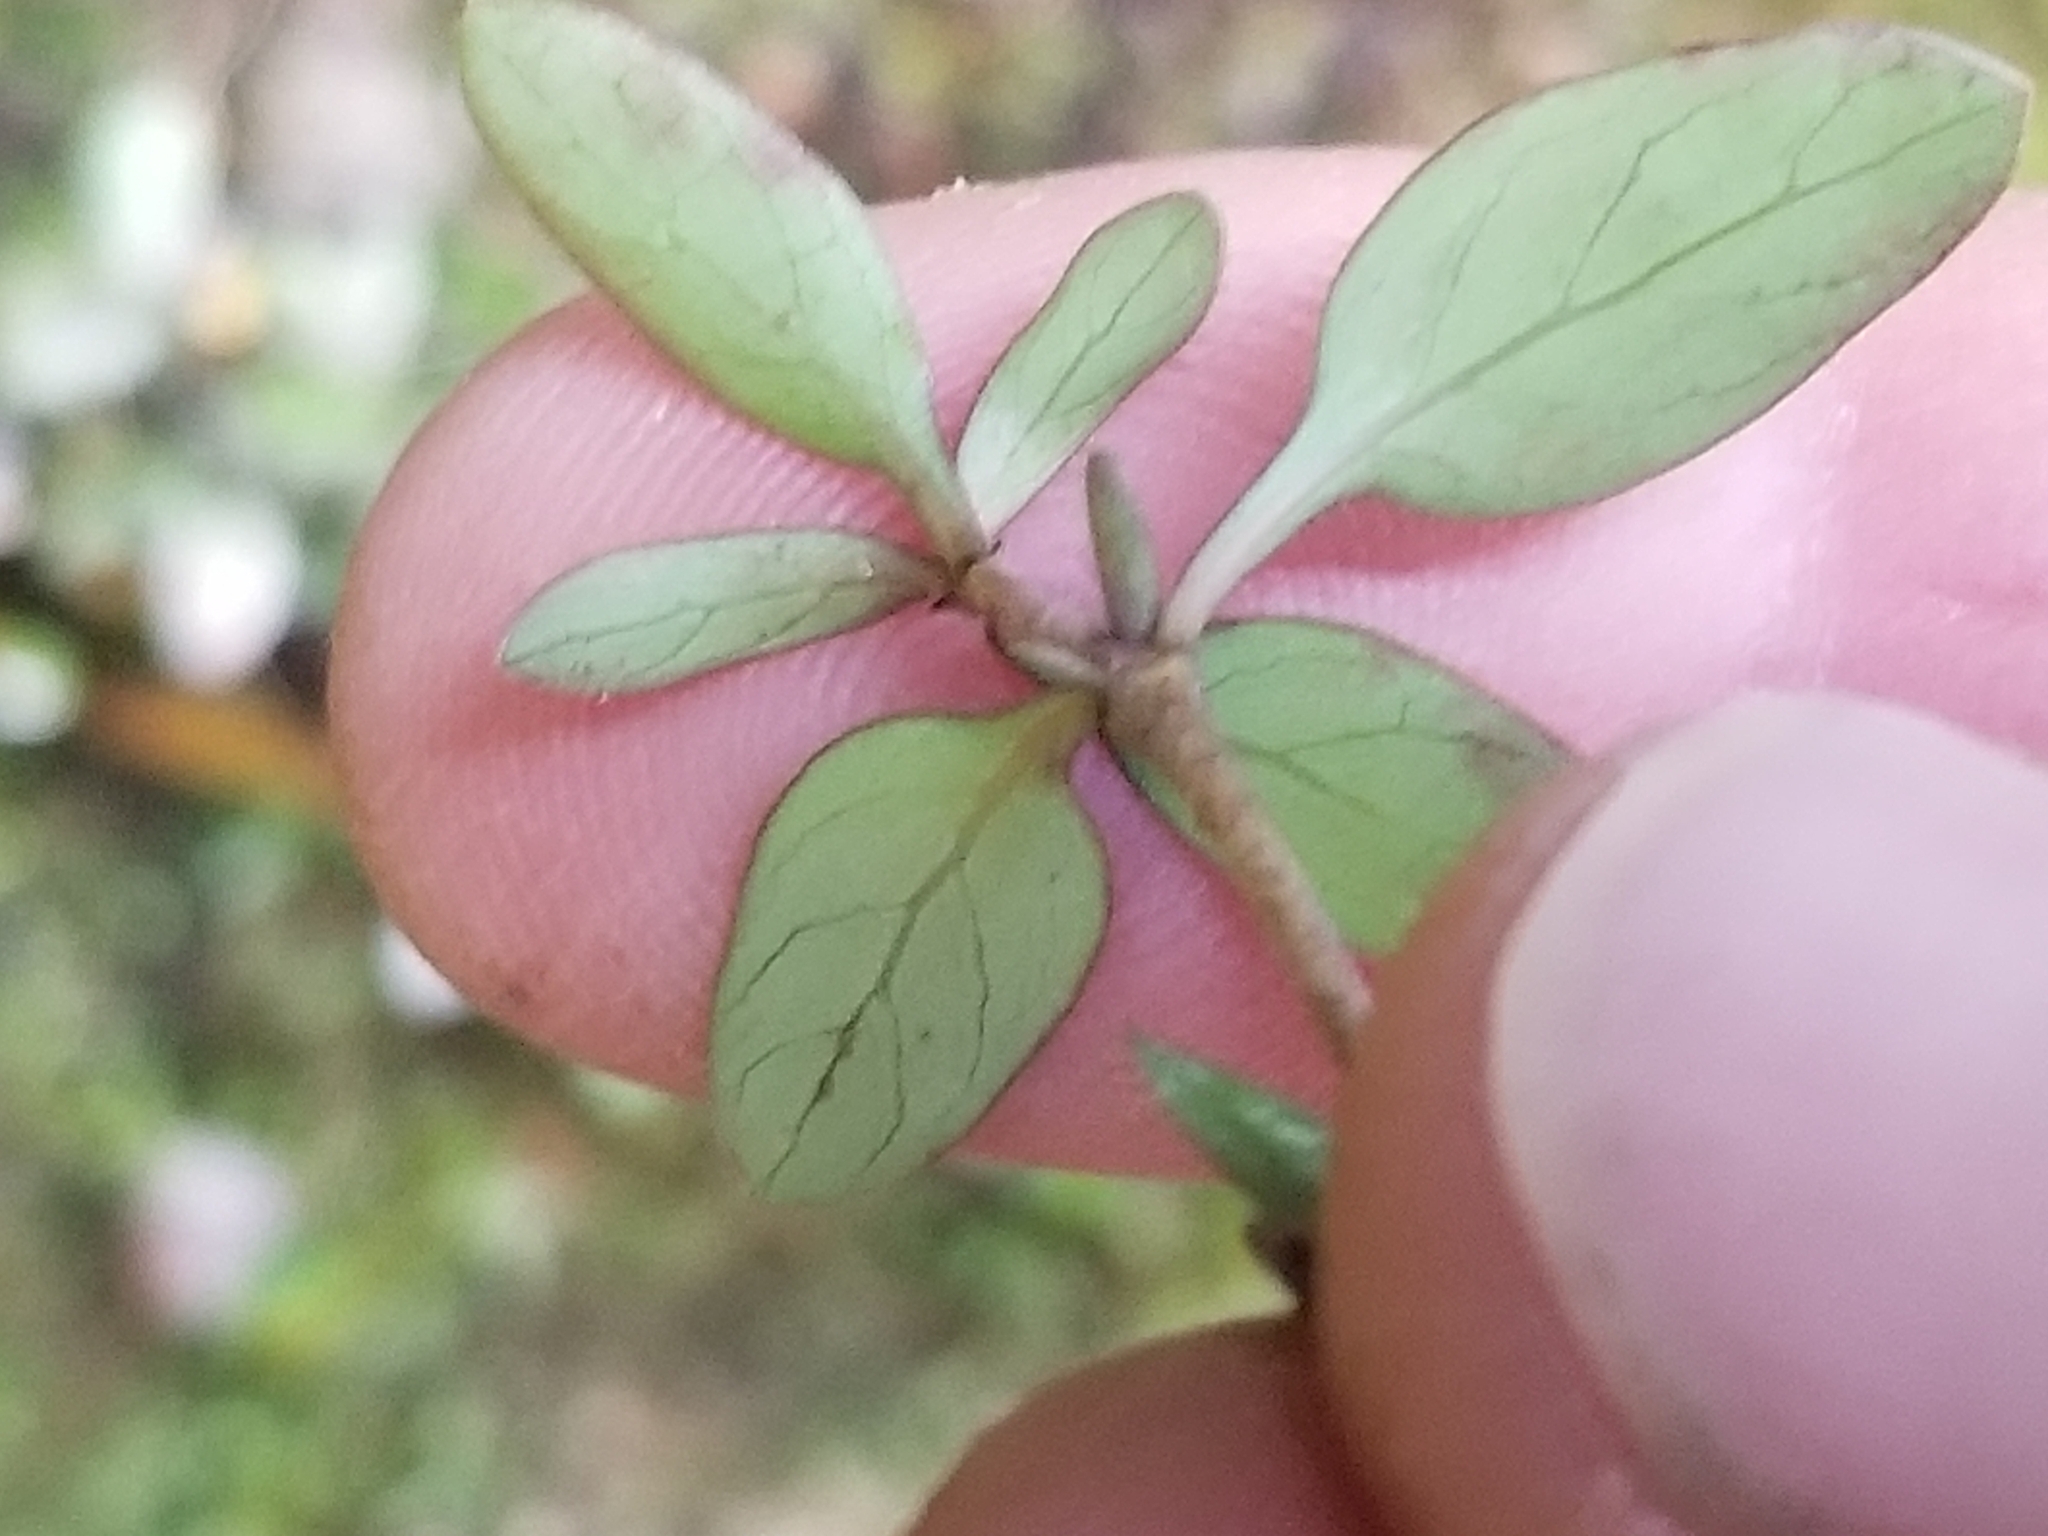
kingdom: Plantae
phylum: Tracheophyta
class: Magnoliopsida
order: Gentianales
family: Rubiaceae
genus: Coprosma
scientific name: Coprosma cunninghamii
